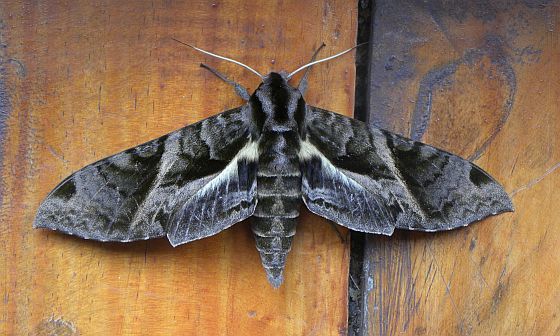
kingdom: Animalia
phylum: Arthropoda
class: Insecta
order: Lepidoptera
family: Sphingidae
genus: Eumorpha
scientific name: Eumorpha cissi
